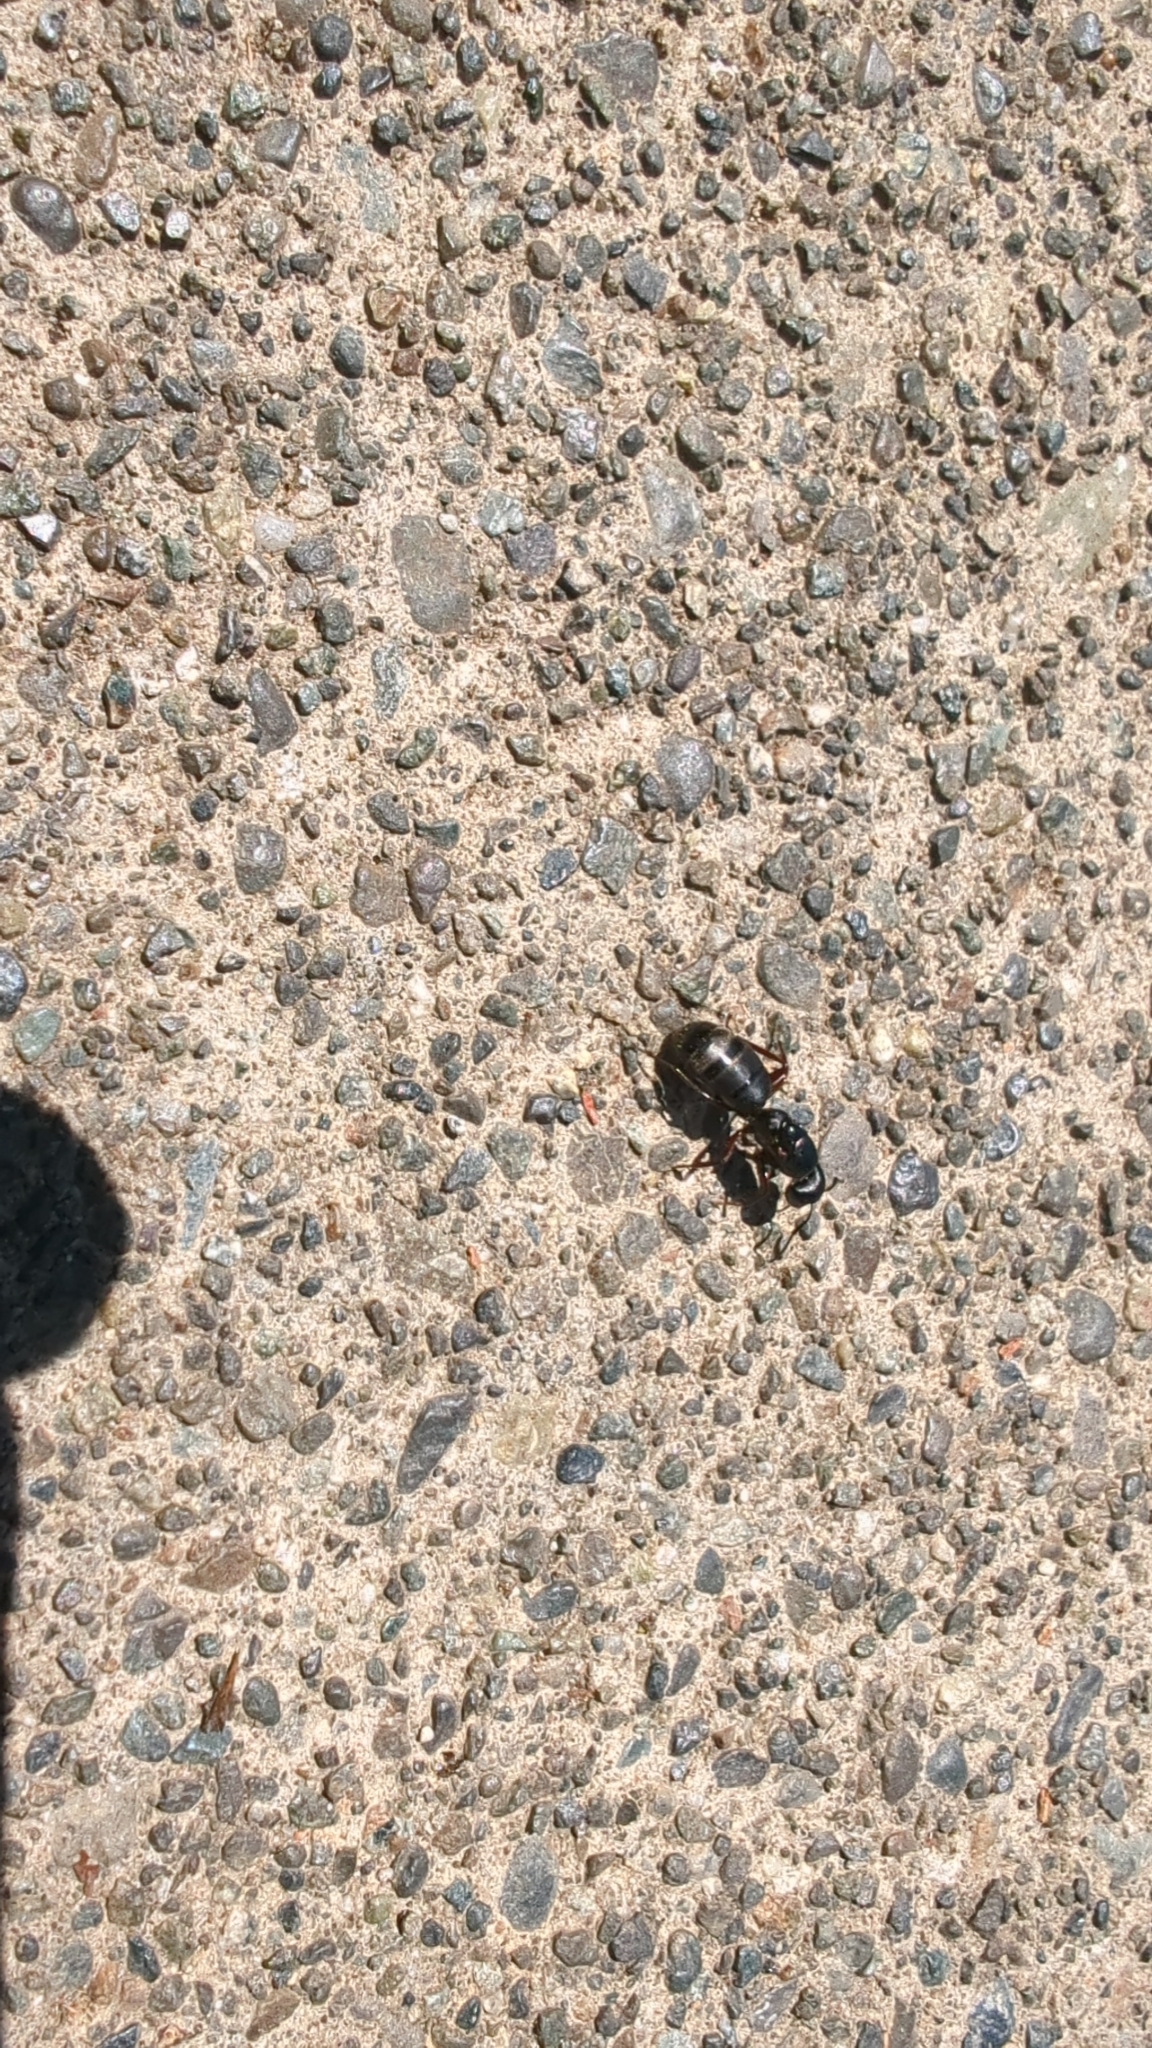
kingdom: Animalia
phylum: Arthropoda
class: Insecta
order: Hymenoptera
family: Formicidae
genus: Camponotus
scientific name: Camponotus modoc
